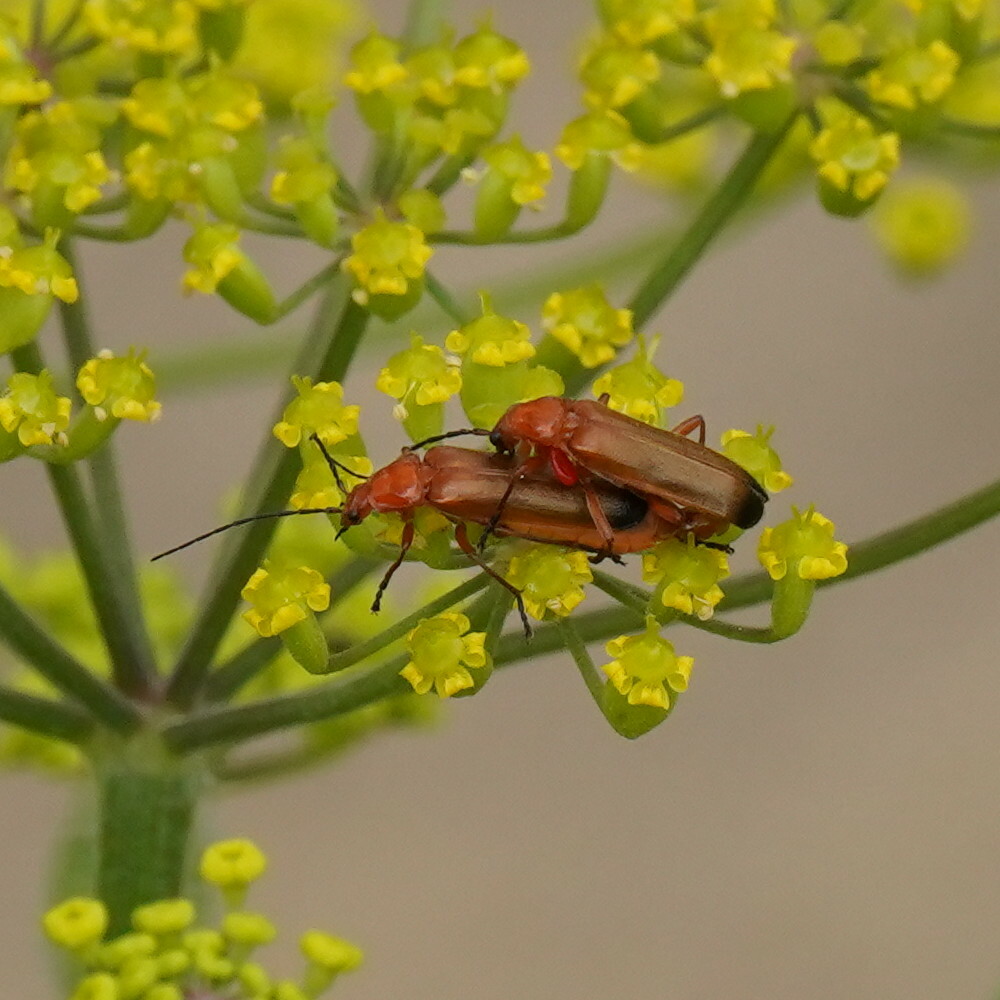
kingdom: Animalia
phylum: Arthropoda
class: Insecta
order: Coleoptera
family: Cantharidae
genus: Rhagonycha
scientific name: Rhagonycha fulva
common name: Common red soldier beetle
